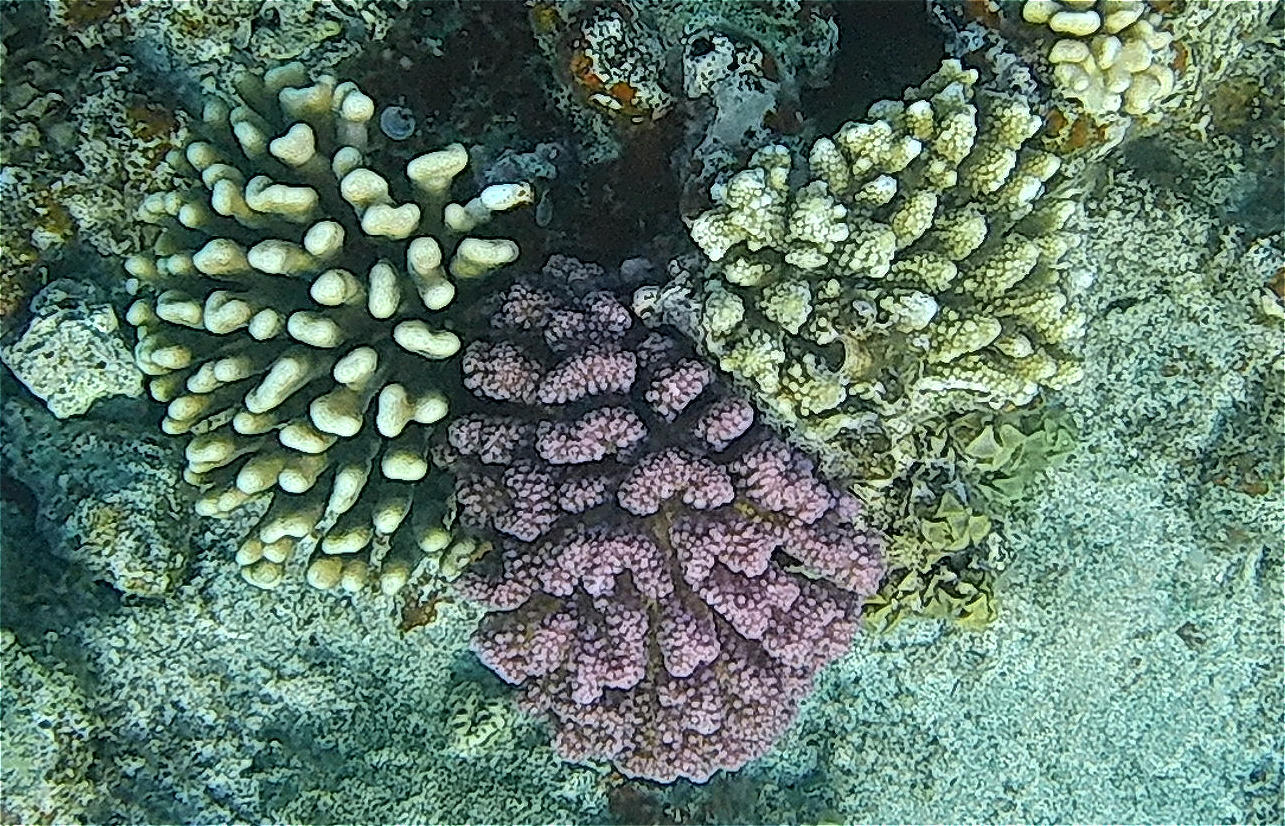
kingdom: Animalia
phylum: Cnidaria
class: Anthozoa
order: Scleractinia
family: Pocilloporidae
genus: Pocillopora
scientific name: Pocillopora verrucosa
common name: Cauliflower coral
